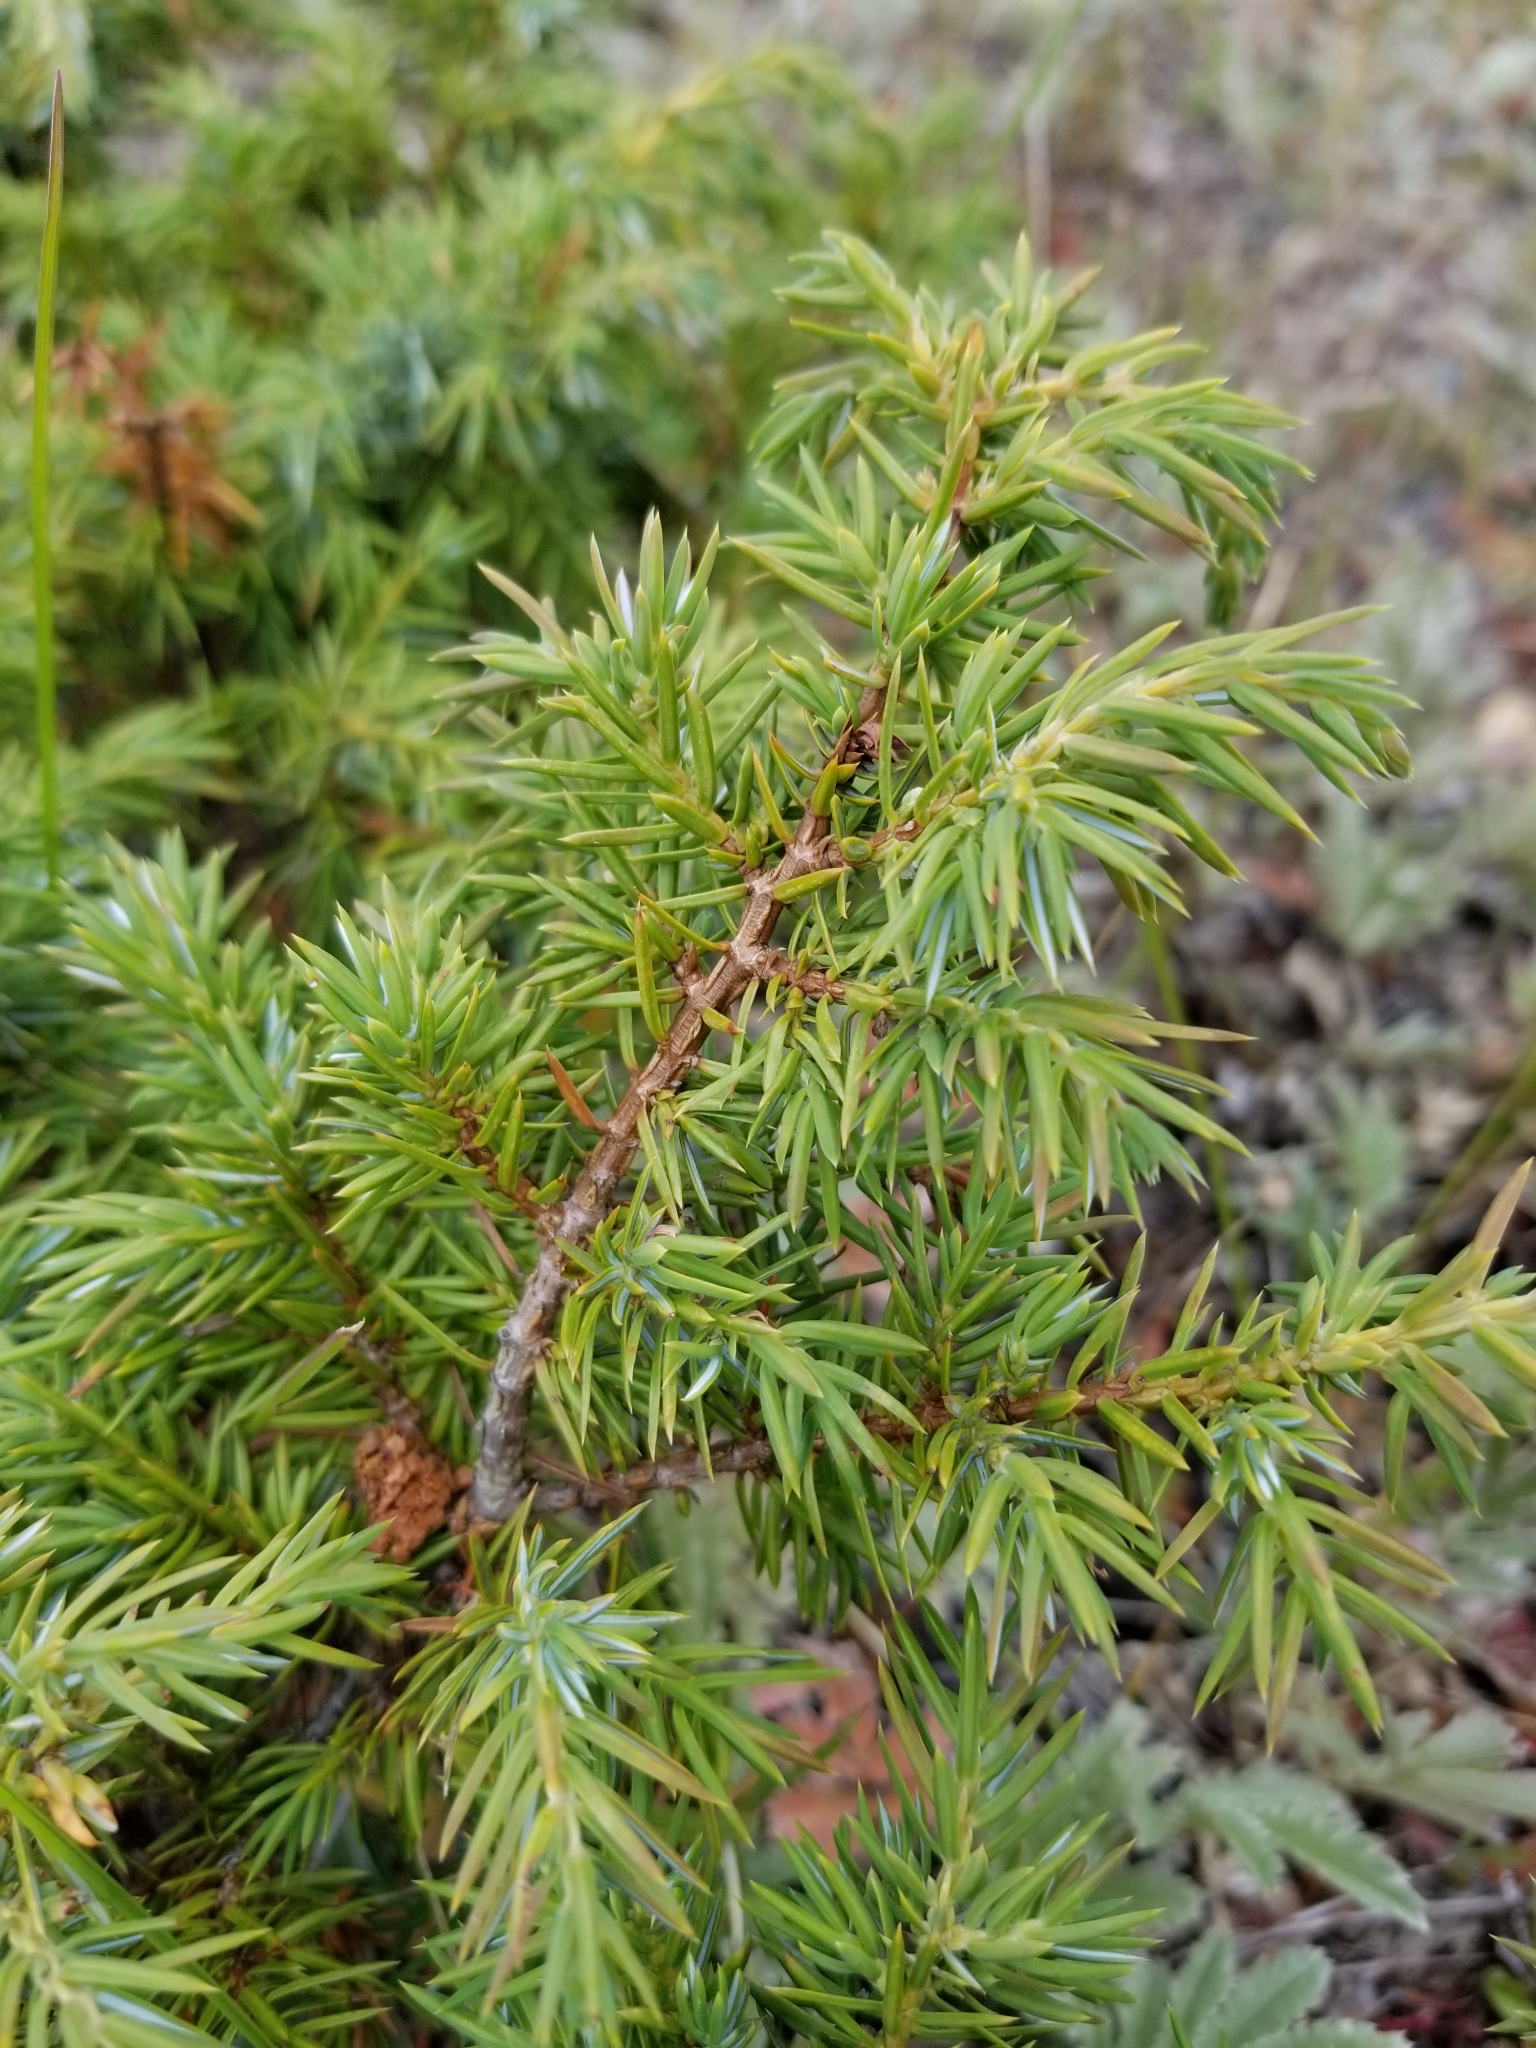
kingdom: Plantae
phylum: Tracheophyta
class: Pinopsida
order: Pinales
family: Cupressaceae
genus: Juniperus
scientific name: Juniperus communis
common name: Common juniper
